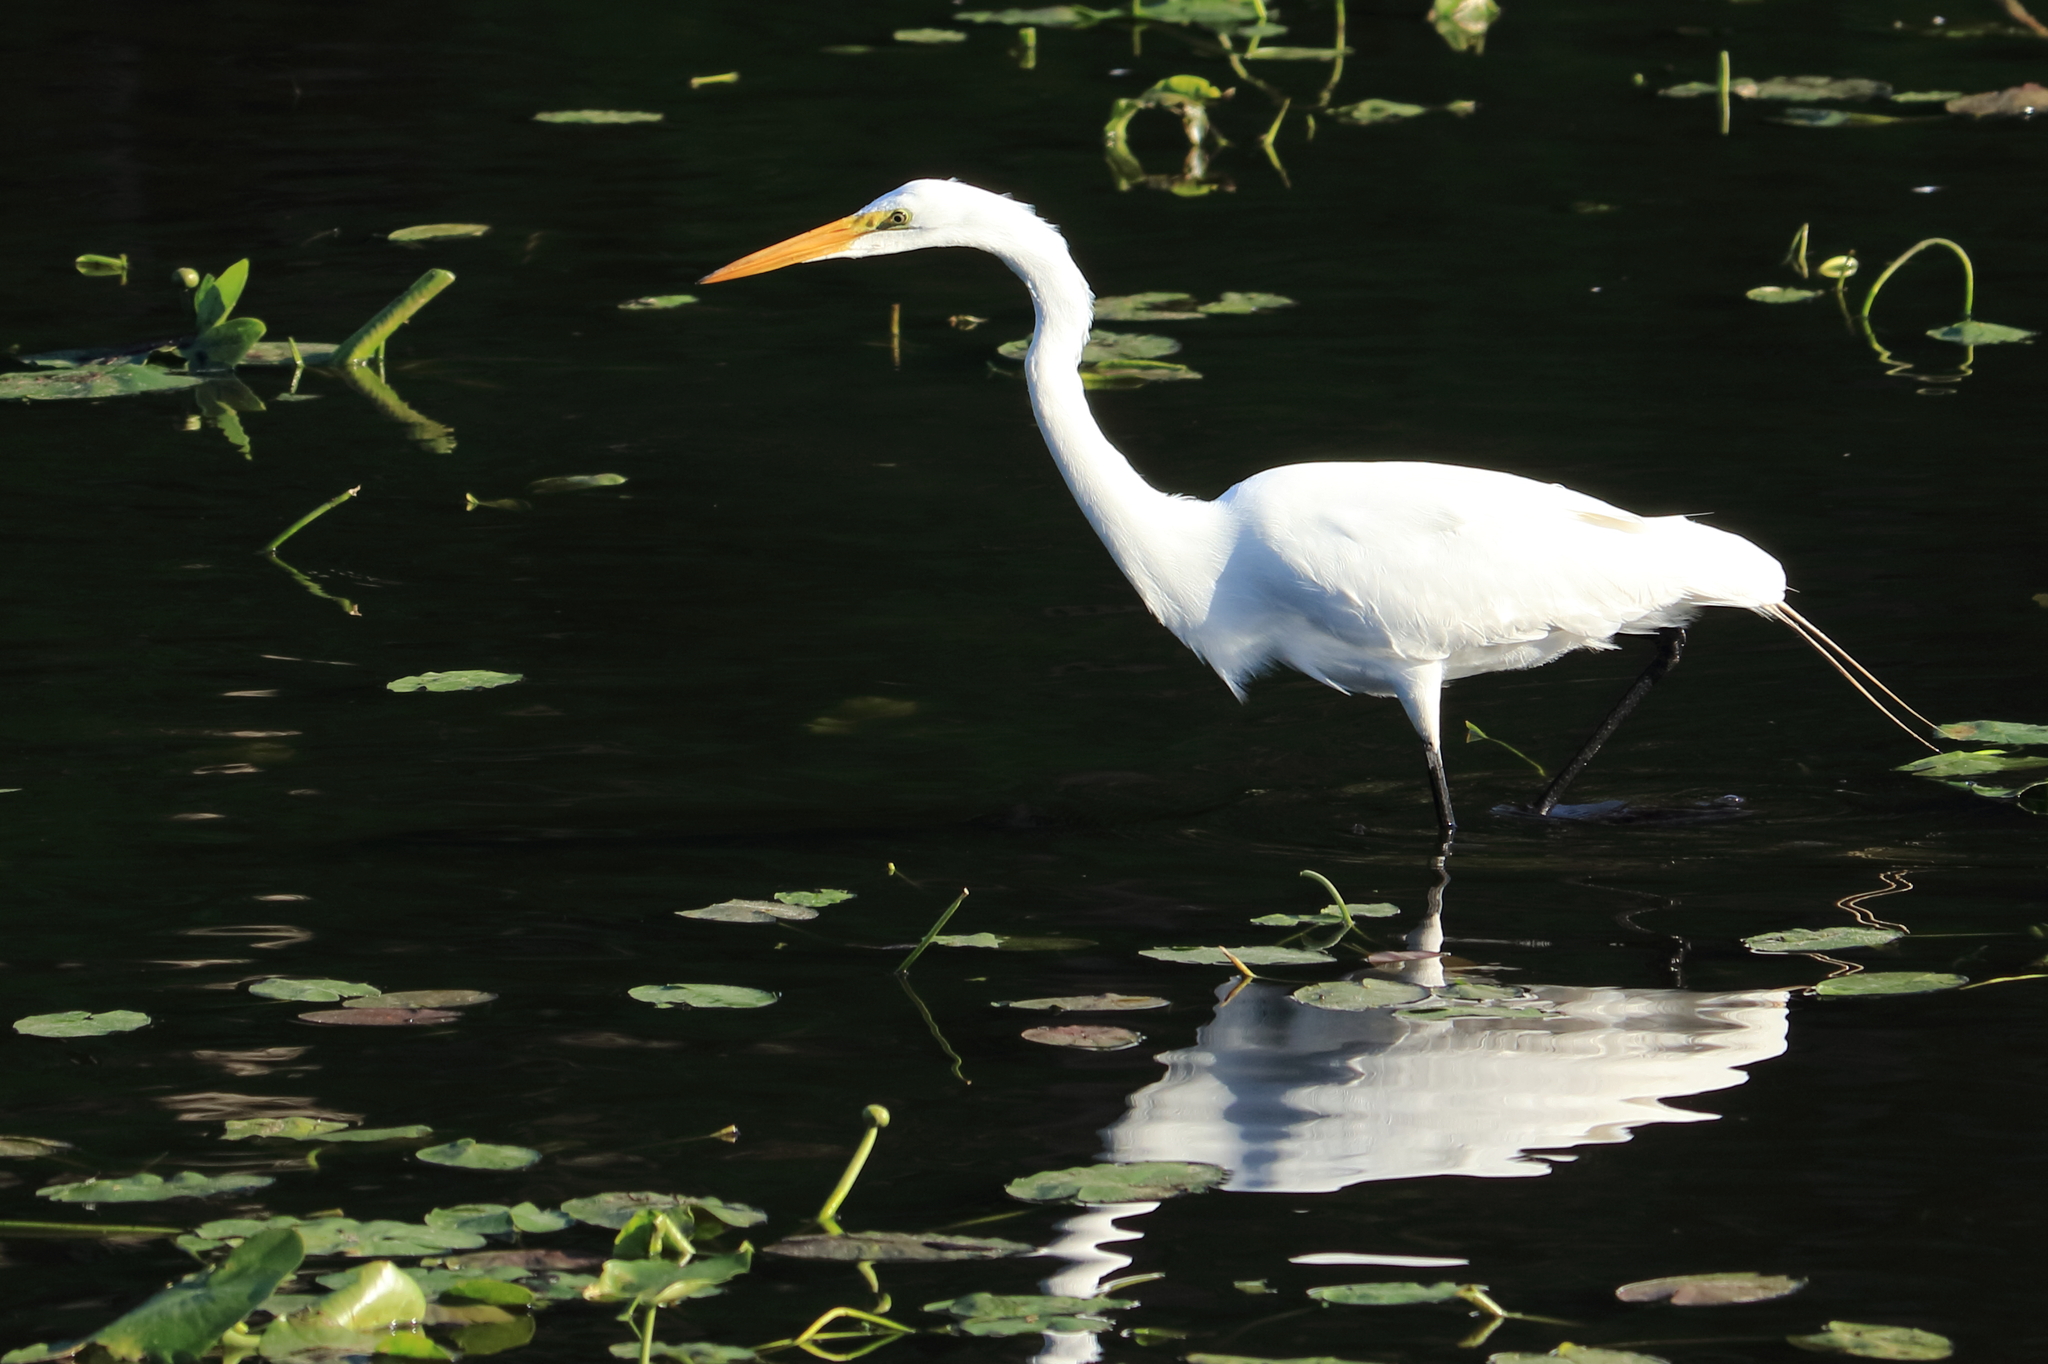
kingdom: Animalia
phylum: Chordata
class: Aves
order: Pelecaniformes
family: Ardeidae
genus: Ardea
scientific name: Ardea alba
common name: Great egret
